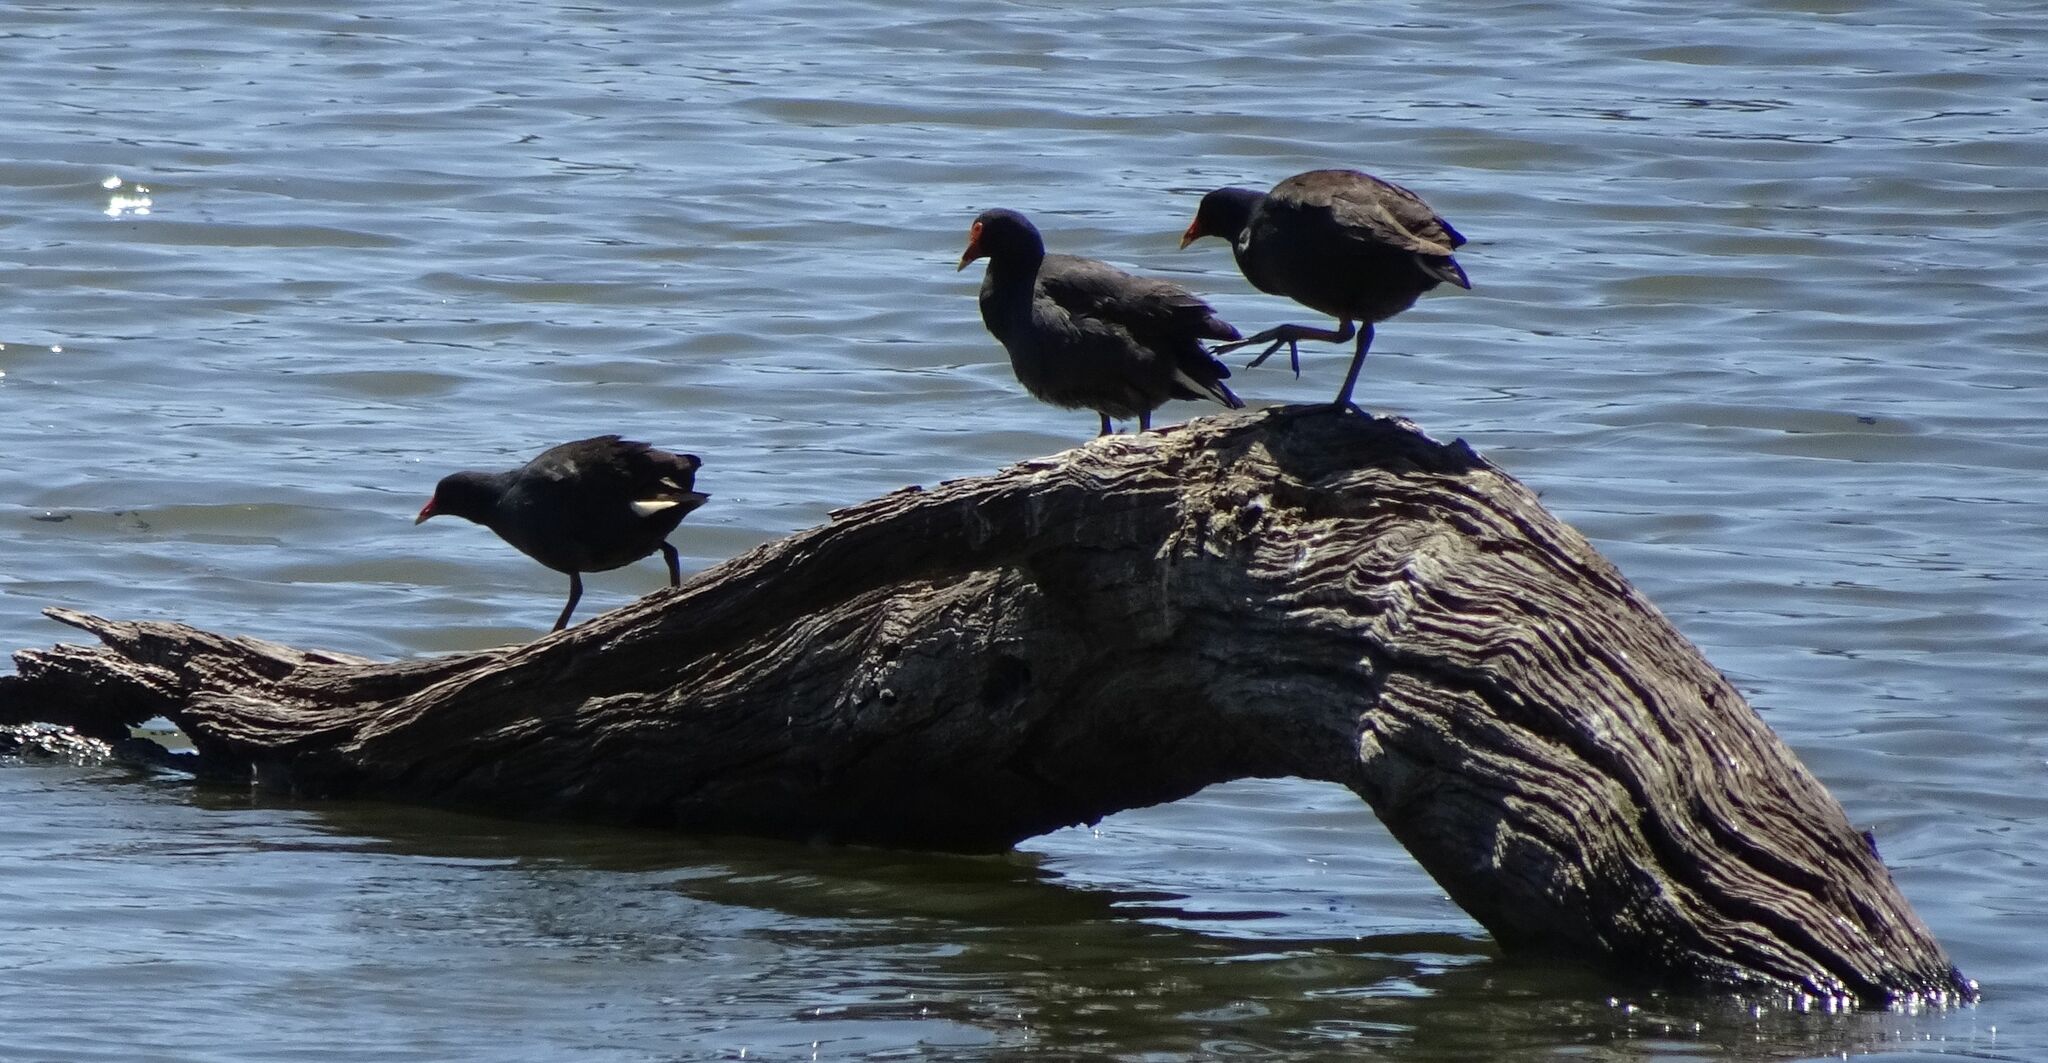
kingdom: Animalia
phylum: Chordata
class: Aves
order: Gruiformes
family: Rallidae
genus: Gallinula
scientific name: Gallinula tenebrosa
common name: Dusky moorhen
